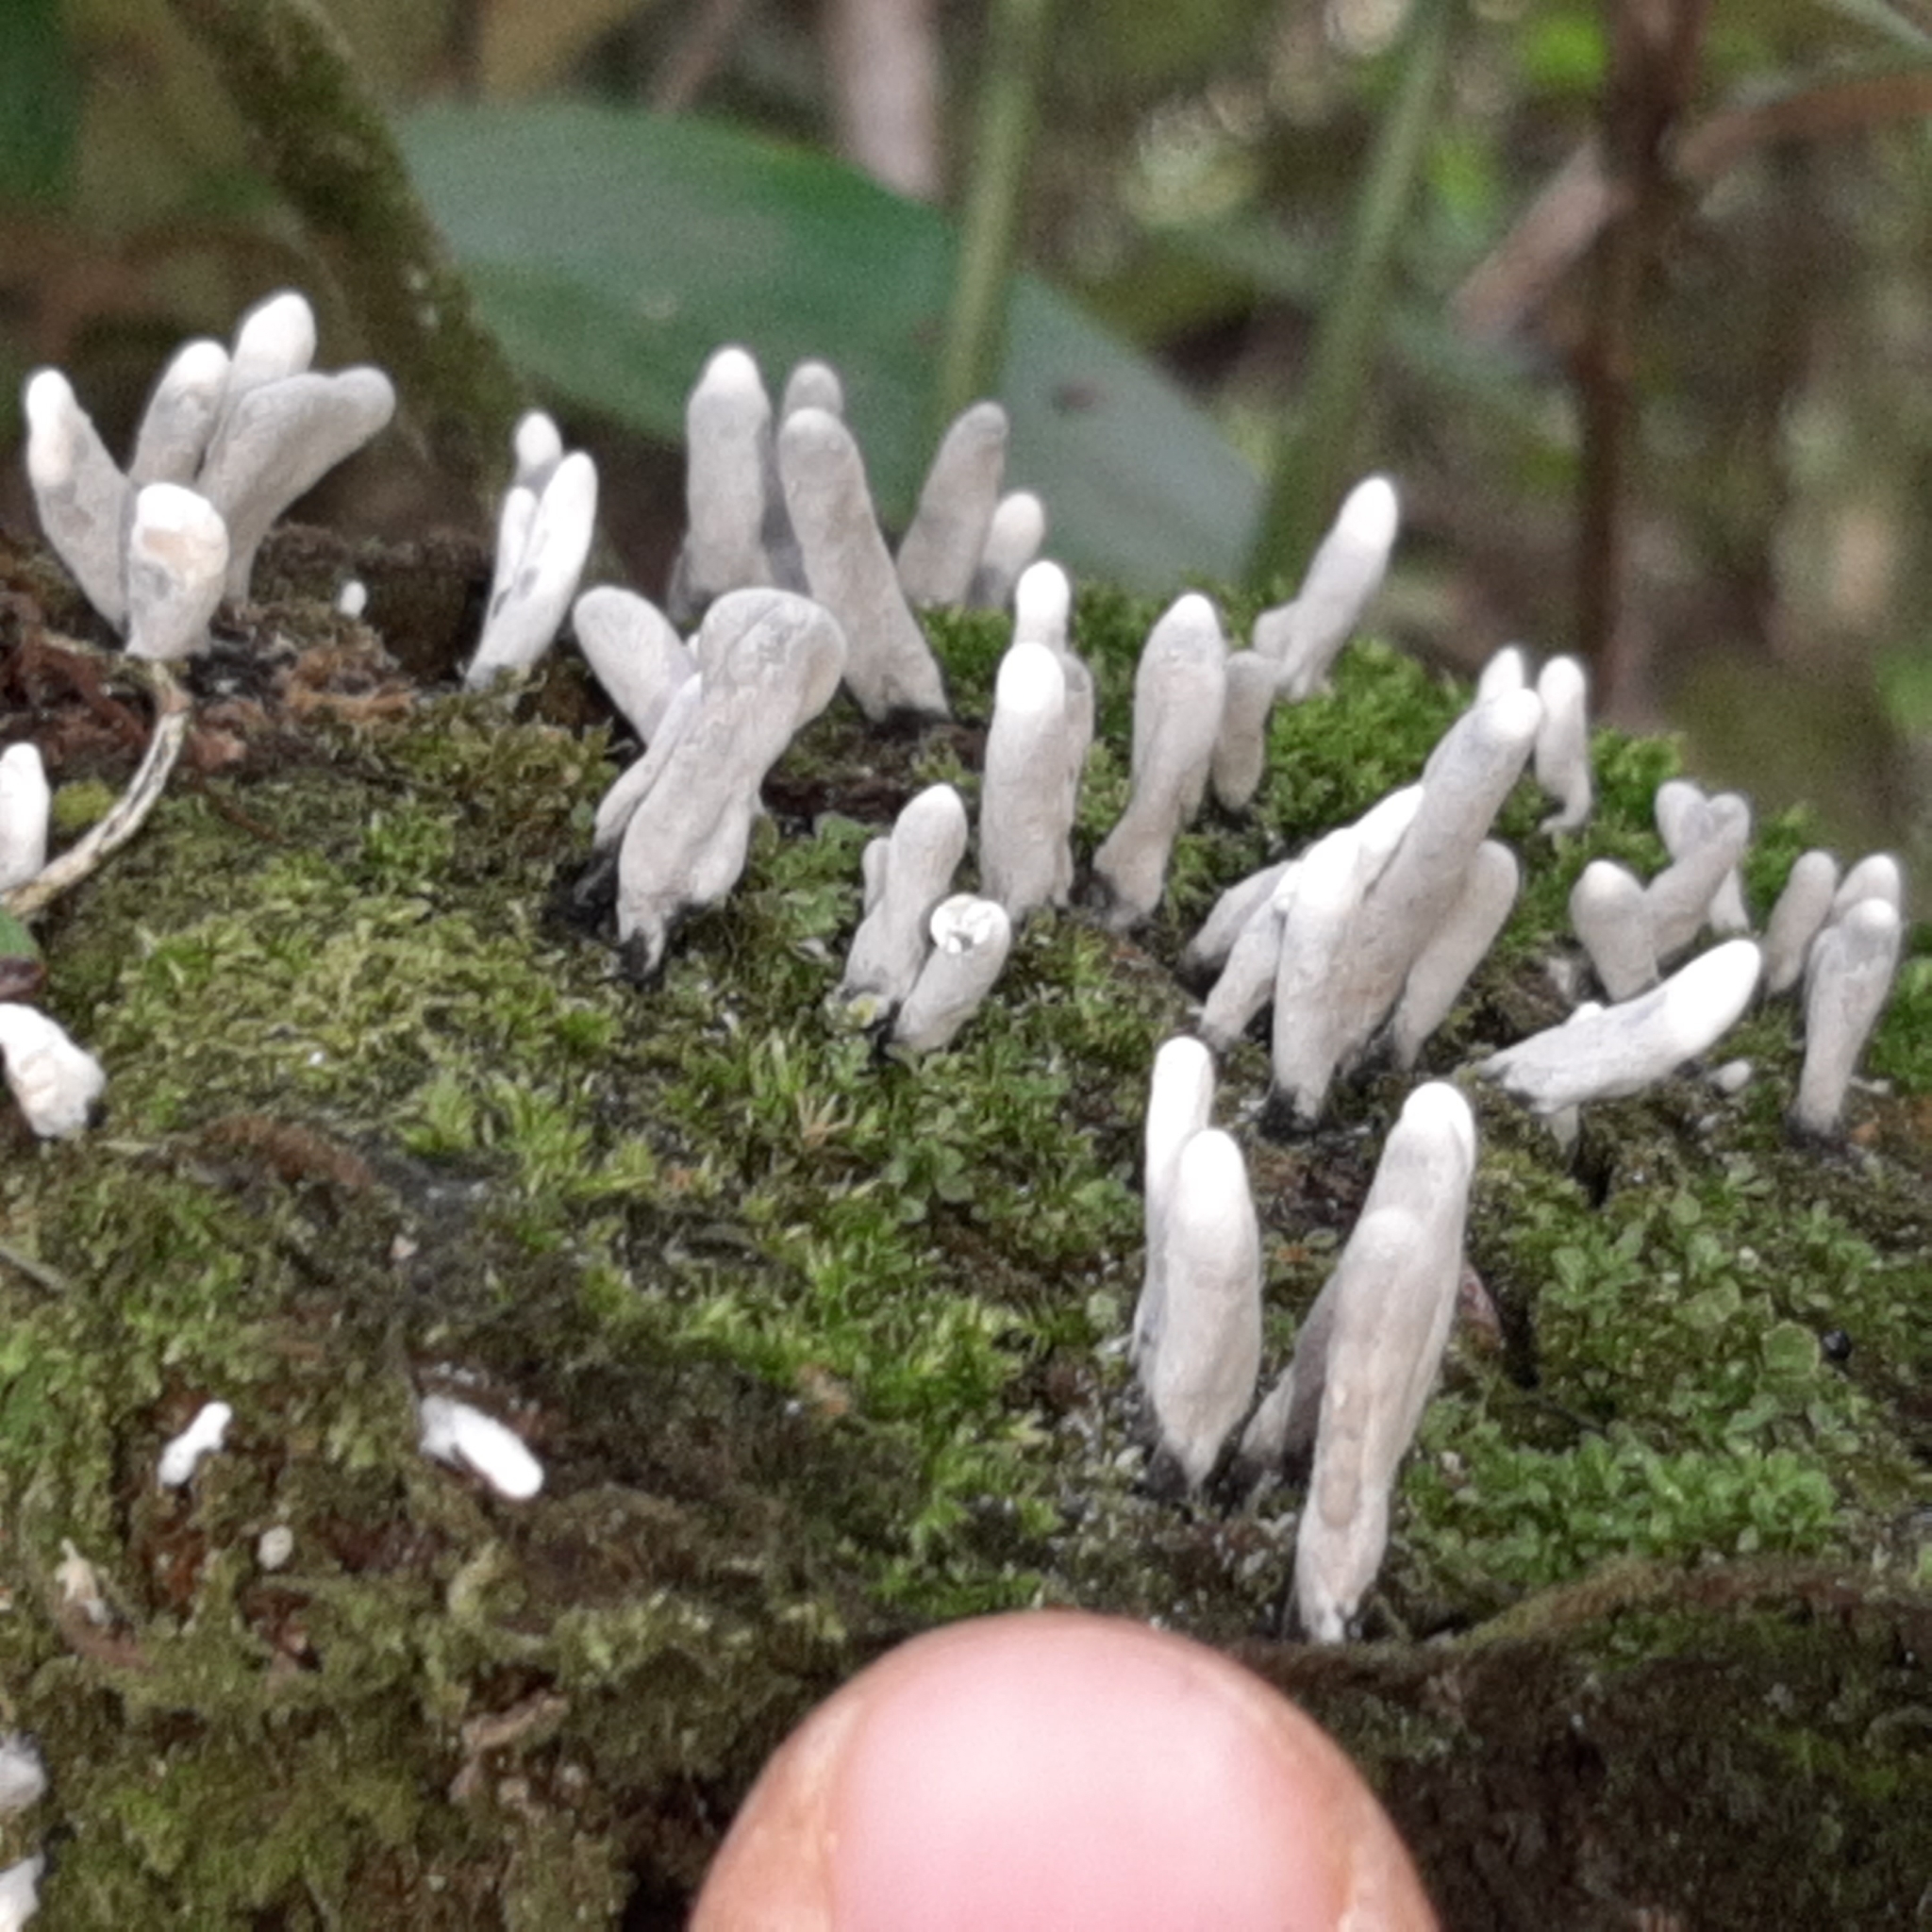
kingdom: Fungi
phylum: Ascomycota
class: Sordariomycetes
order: Xylariales
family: Xylariaceae
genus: Xylaria
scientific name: Xylaria polymorpha
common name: Dead man's fingers
